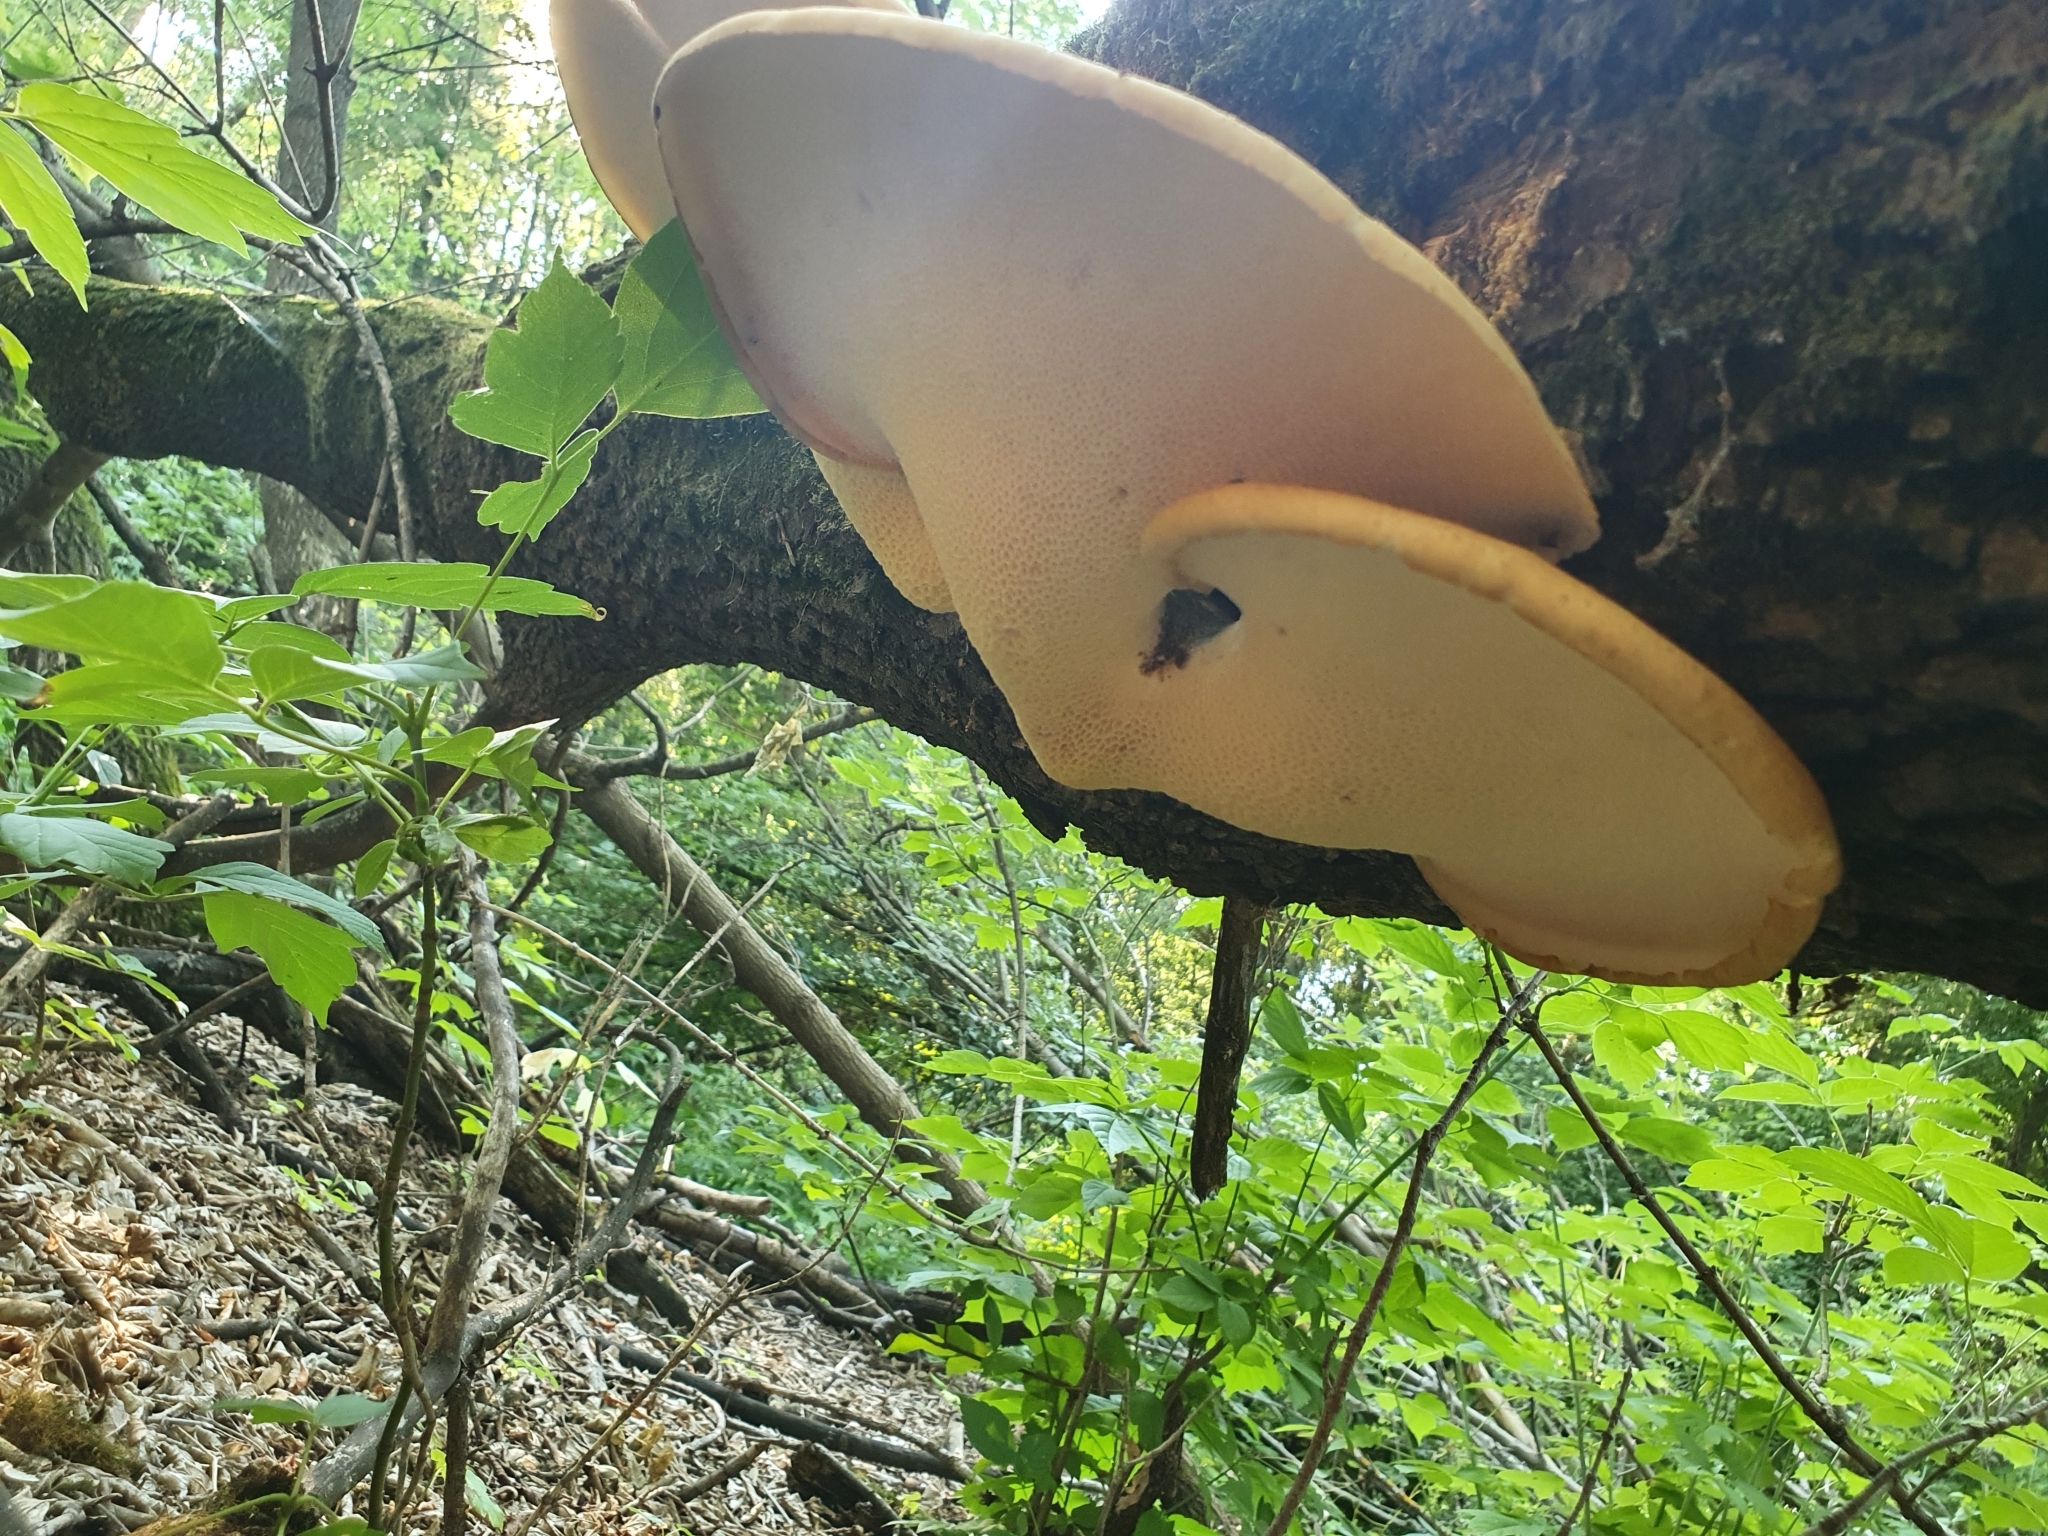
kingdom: Fungi
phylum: Basidiomycota
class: Agaricomycetes
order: Polyporales
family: Polyporaceae
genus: Cerioporus
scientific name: Cerioporus squamosus
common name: Dryad's saddle
